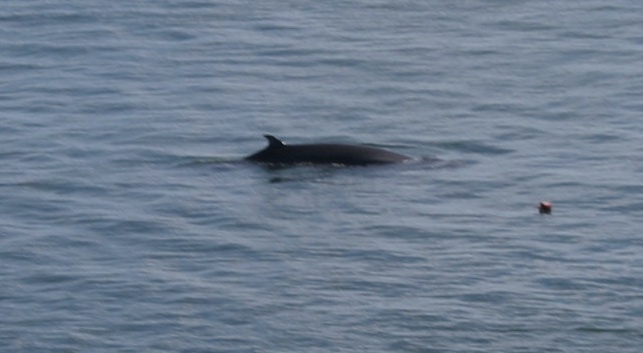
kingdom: Animalia
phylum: Chordata
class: Mammalia
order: Cetacea
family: Balaenopteridae
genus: Balaenoptera
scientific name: Balaenoptera acutorostrata
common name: Common minke whale
